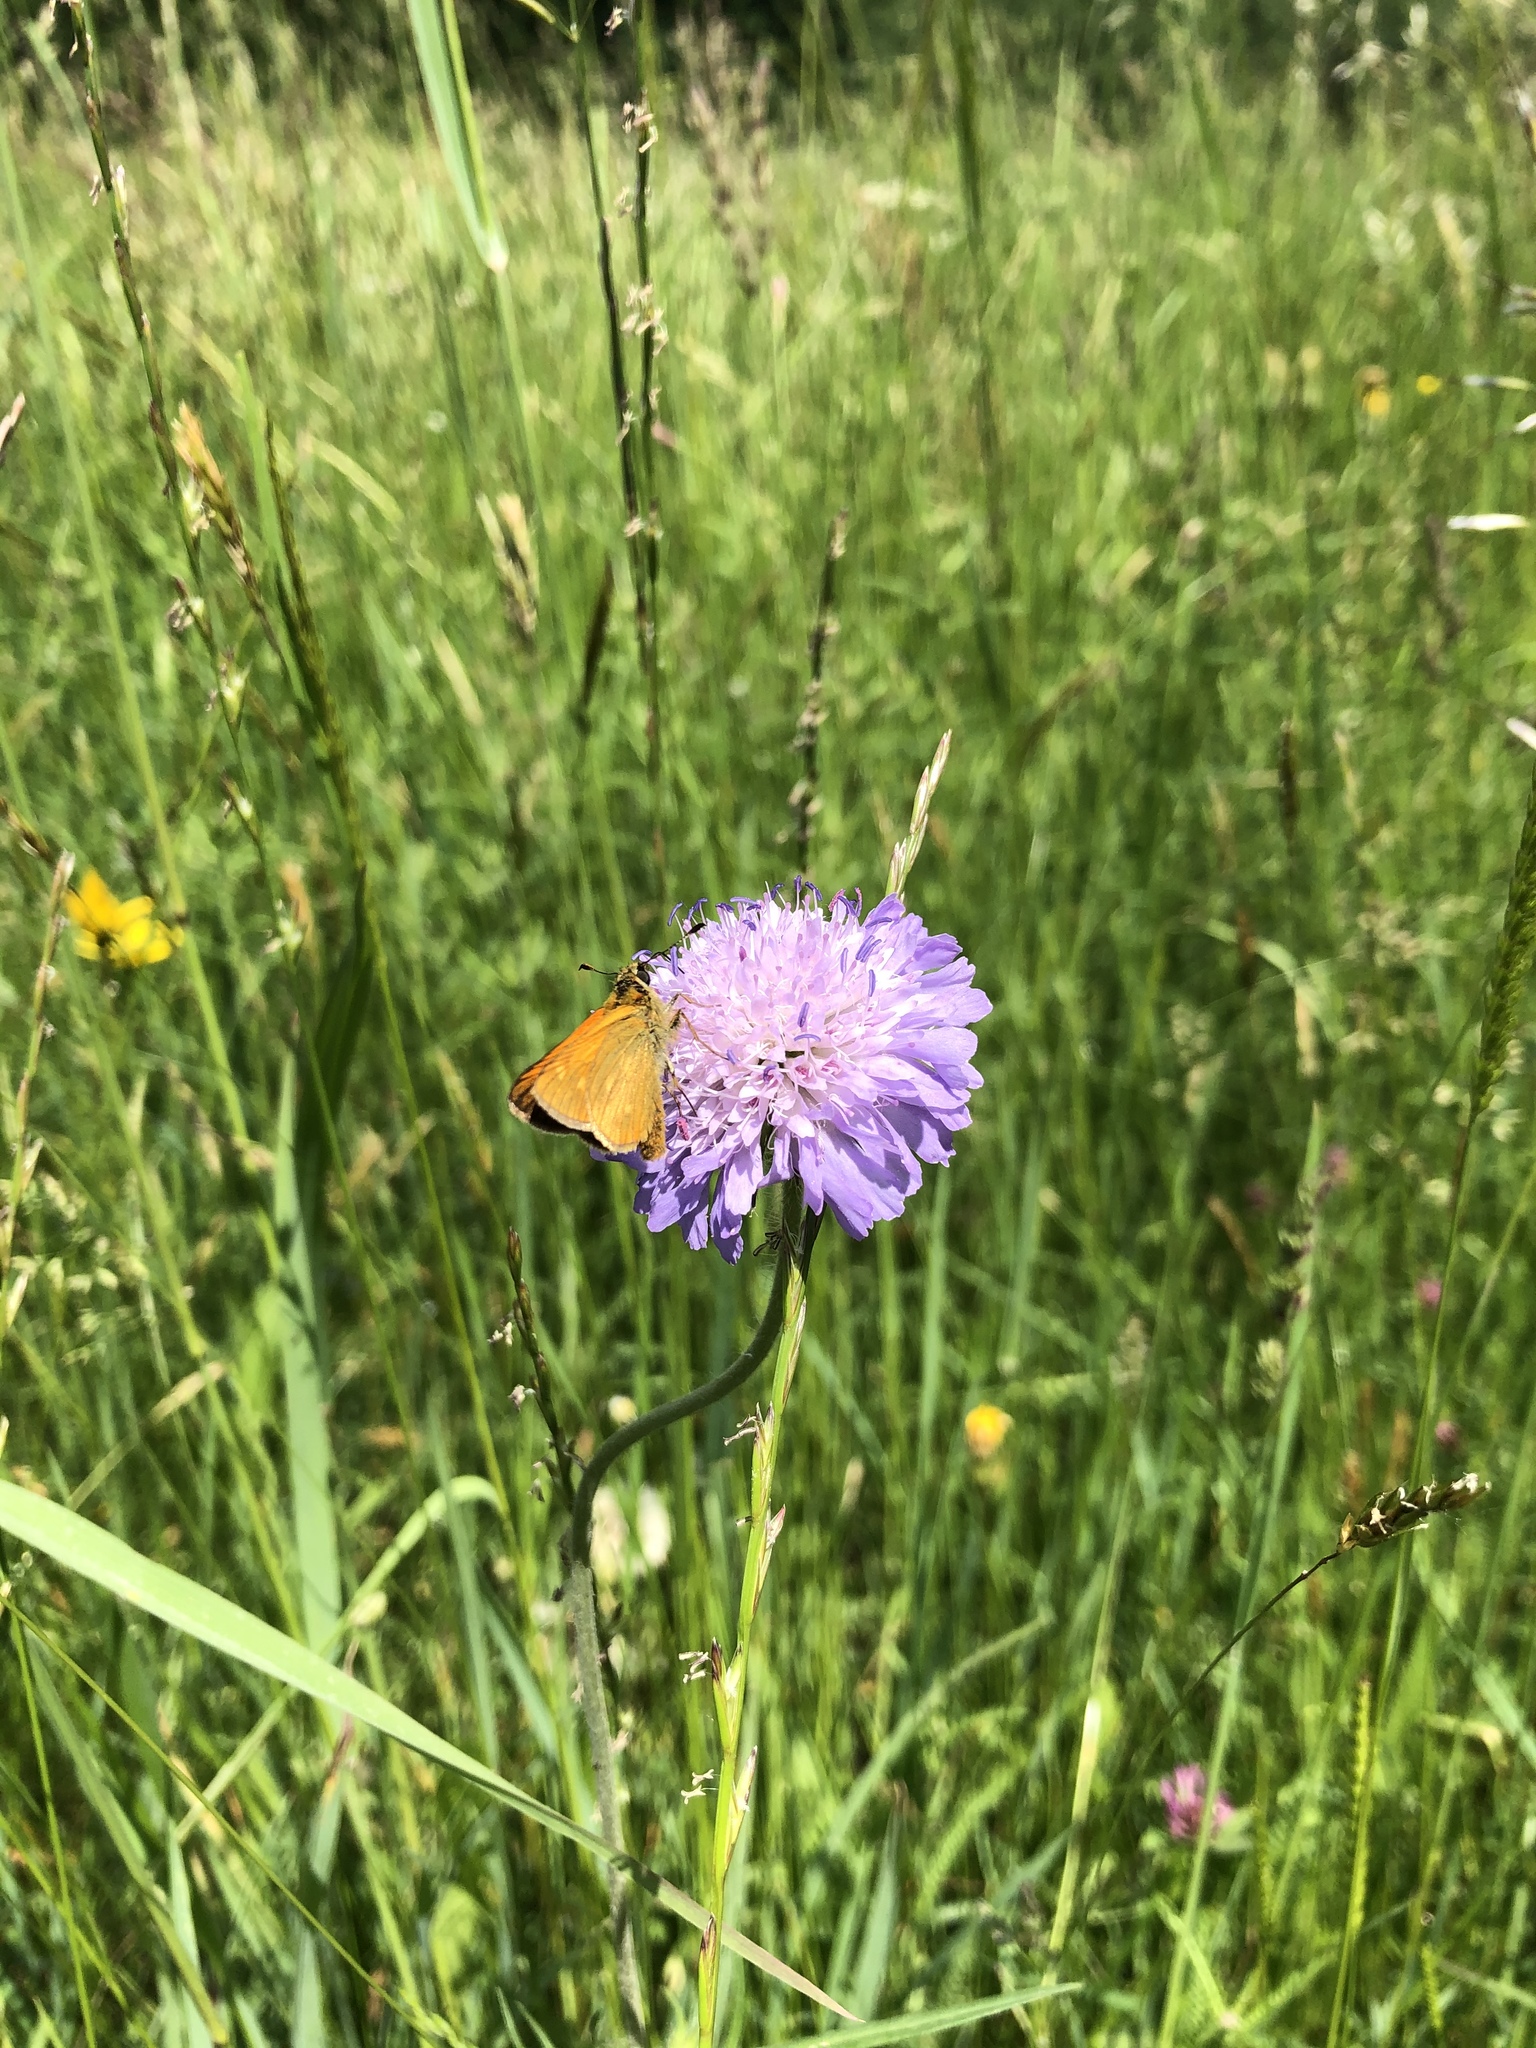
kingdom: Animalia
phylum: Arthropoda
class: Insecta
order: Lepidoptera
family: Hesperiidae
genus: Ochlodes
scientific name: Ochlodes venata
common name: Large skipper
